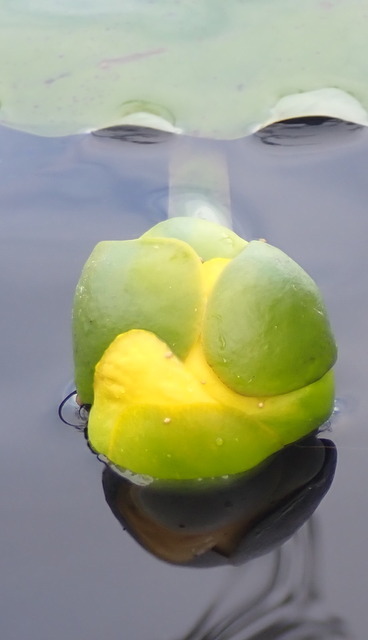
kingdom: Plantae
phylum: Tracheophyta
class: Magnoliopsida
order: Nymphaeales
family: Nymphaeaceae
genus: Nuphar
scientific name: Nuphar advena
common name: Spatter-dock
